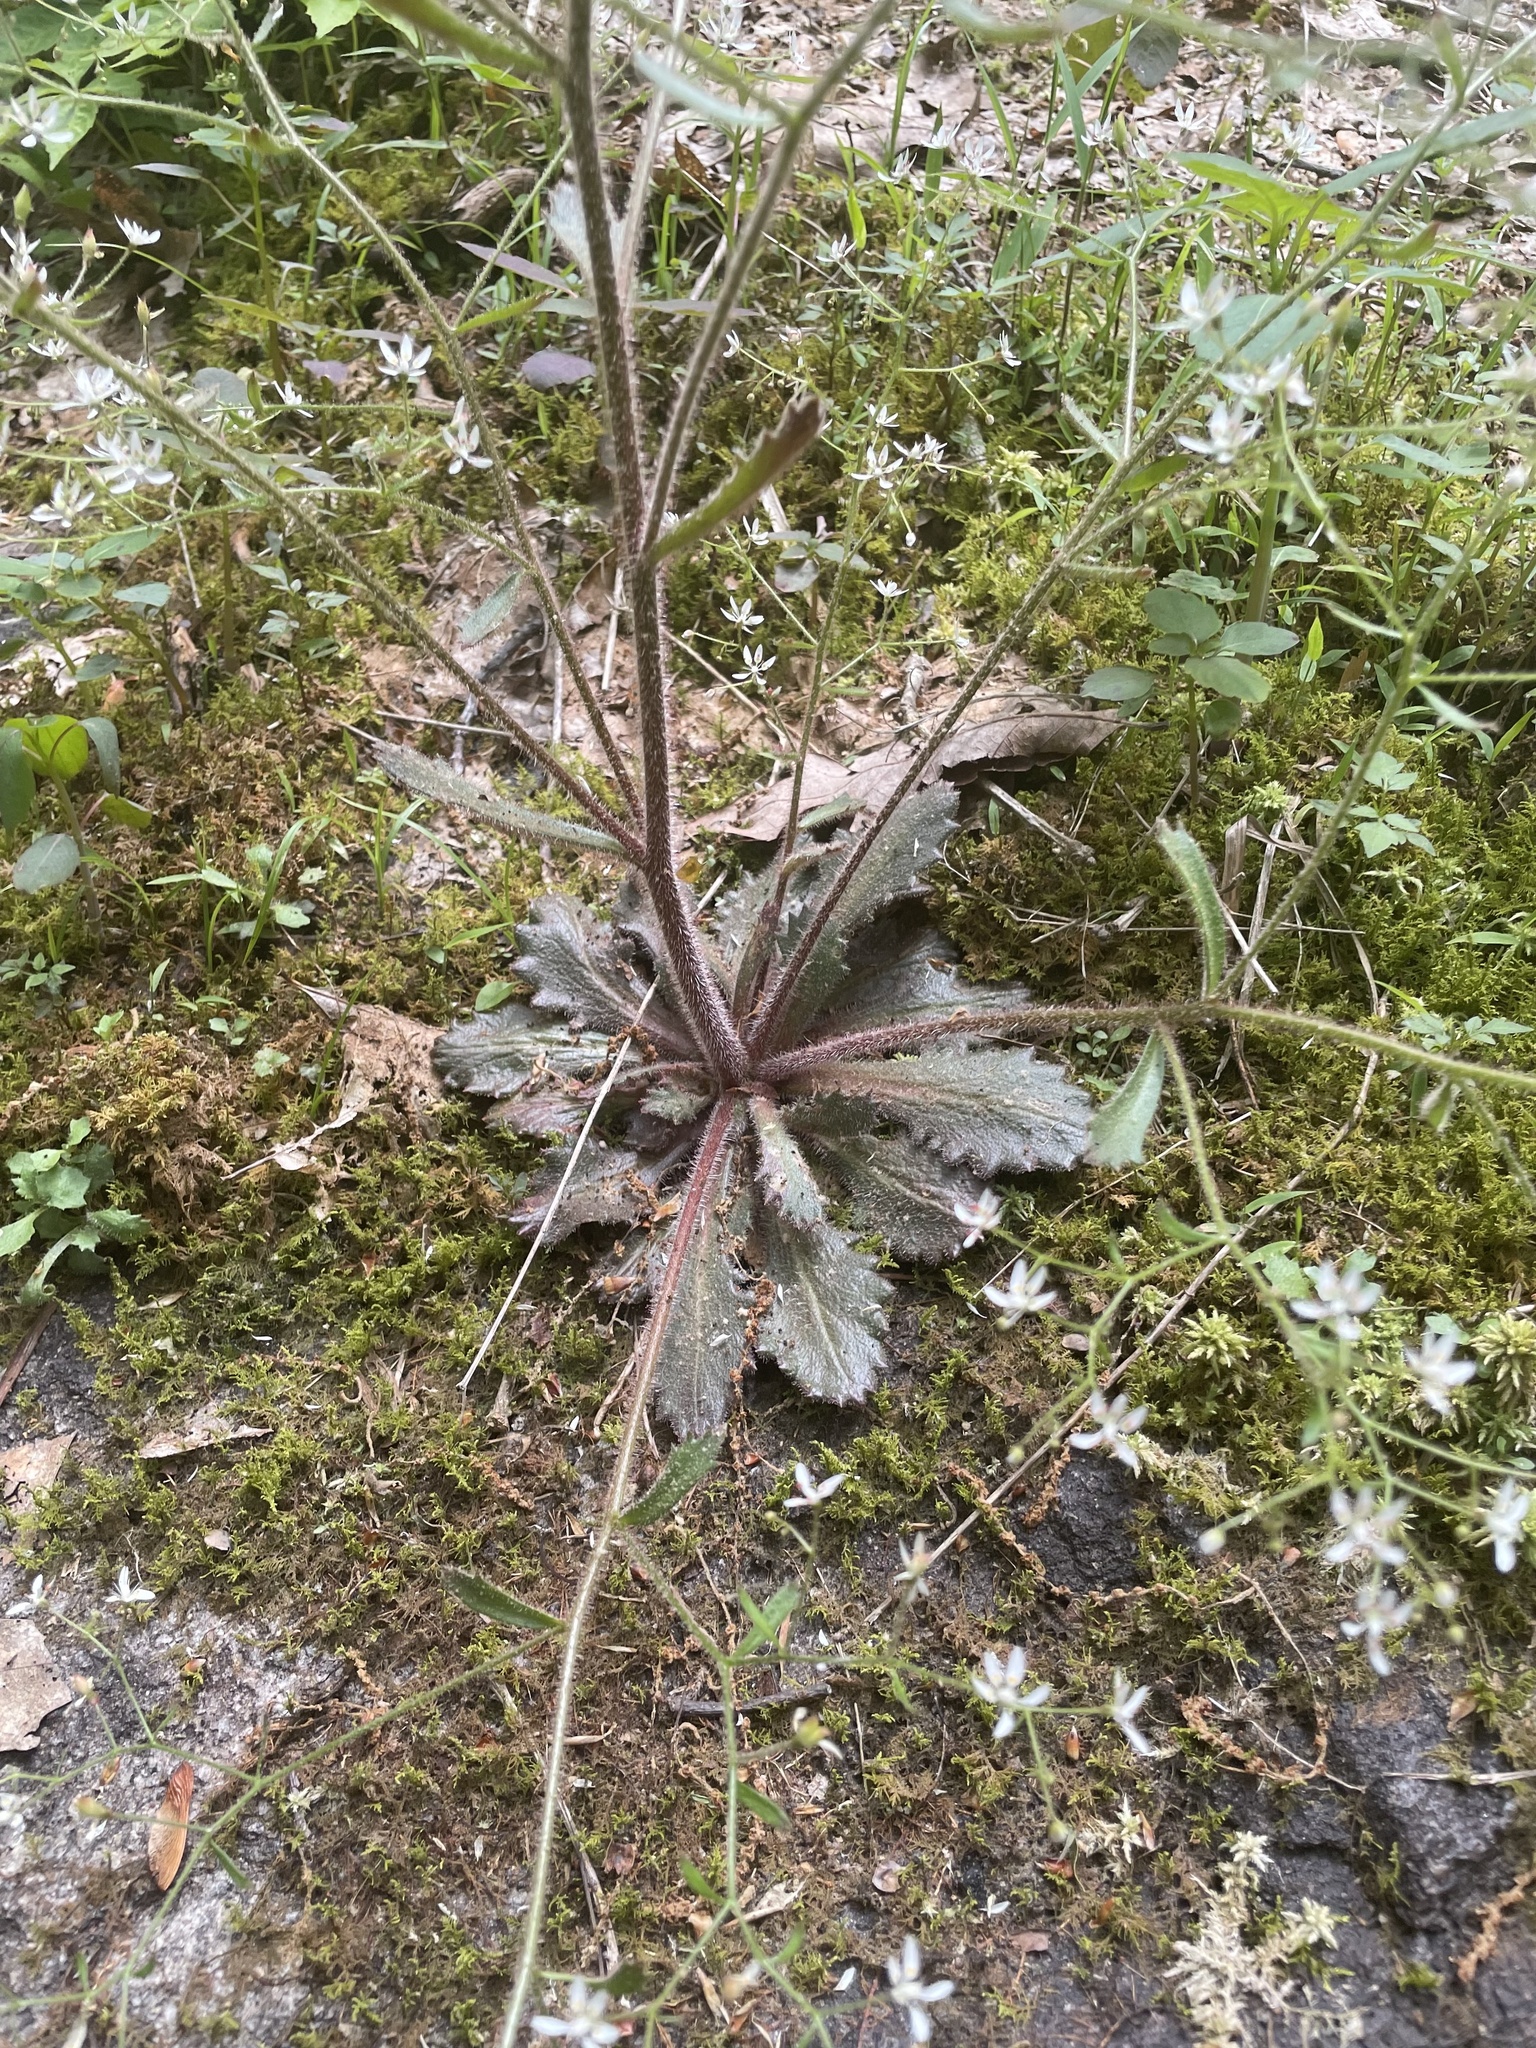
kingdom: Plantae
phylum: Tracheophyta
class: Magnoliopsida
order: Saxifragales
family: Saxifragaceae
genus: Micranthes
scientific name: Micranthes petiolaris
